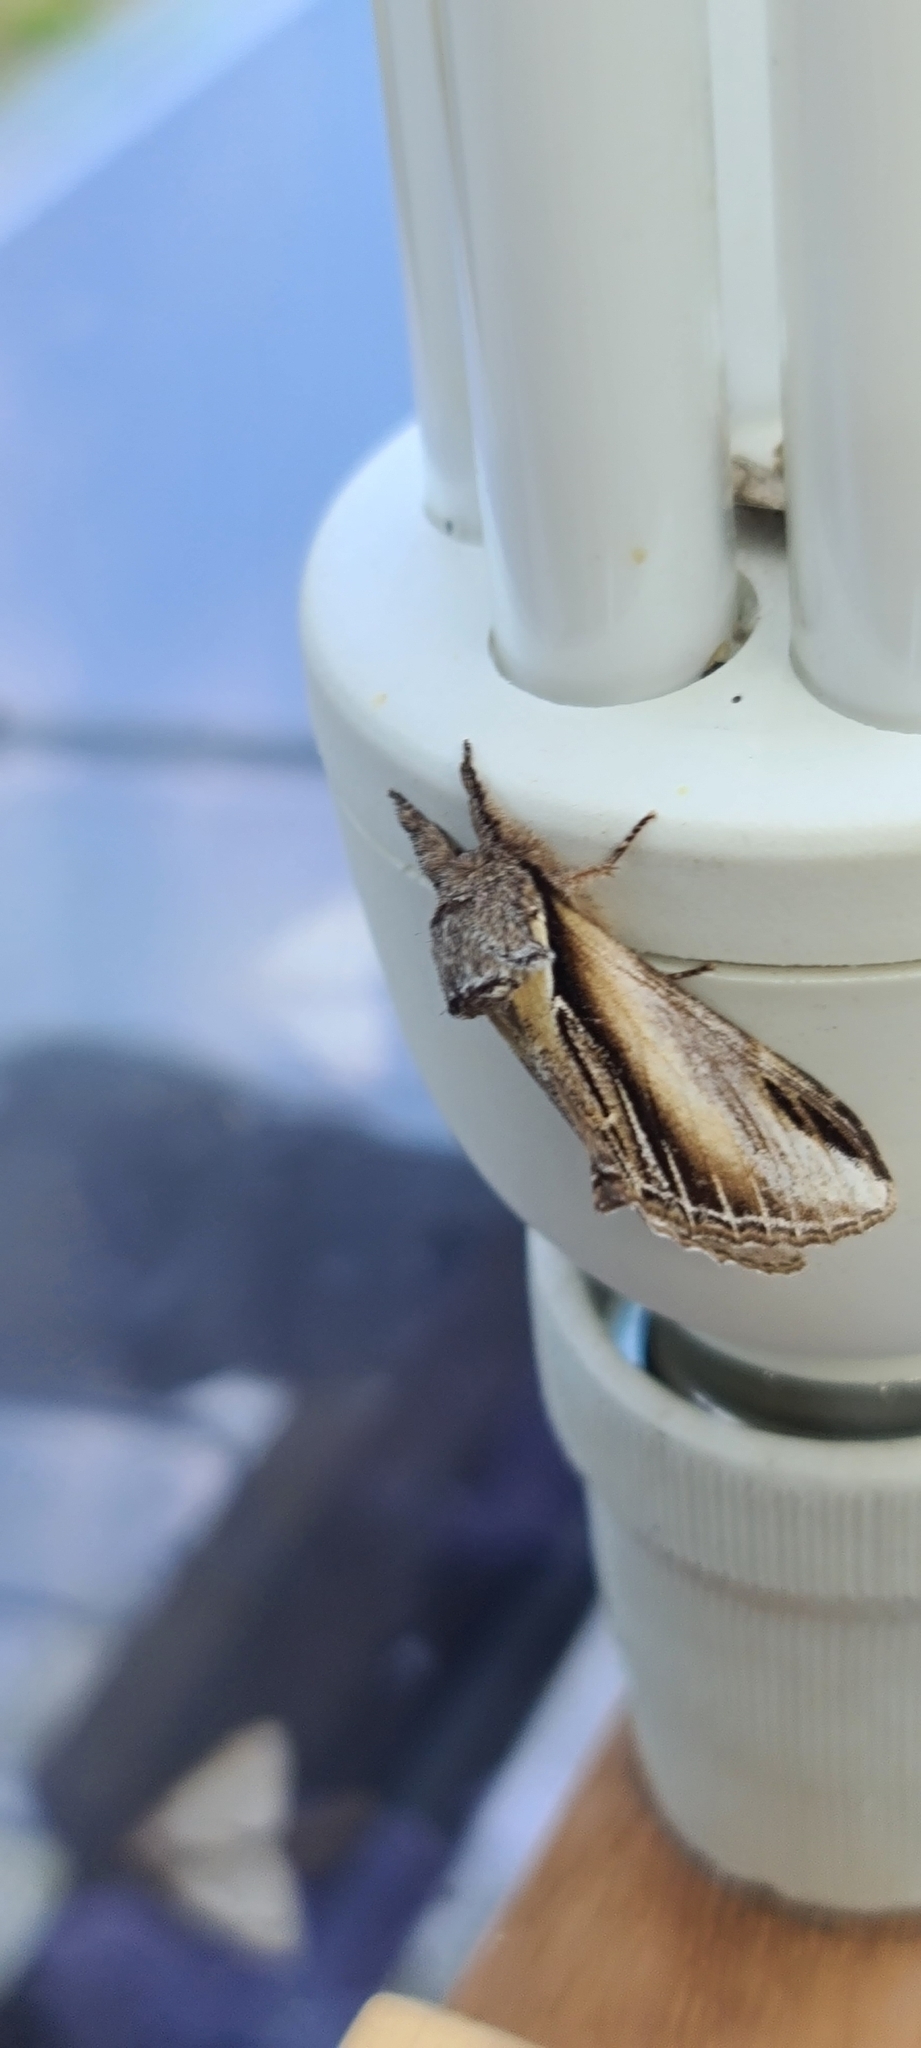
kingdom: Animalia
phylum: Arthropoda
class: Insecta
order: Lepidoptera
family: Notodontidae
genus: Pheosia
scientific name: Pheosia tremula
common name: Swallow prominent
